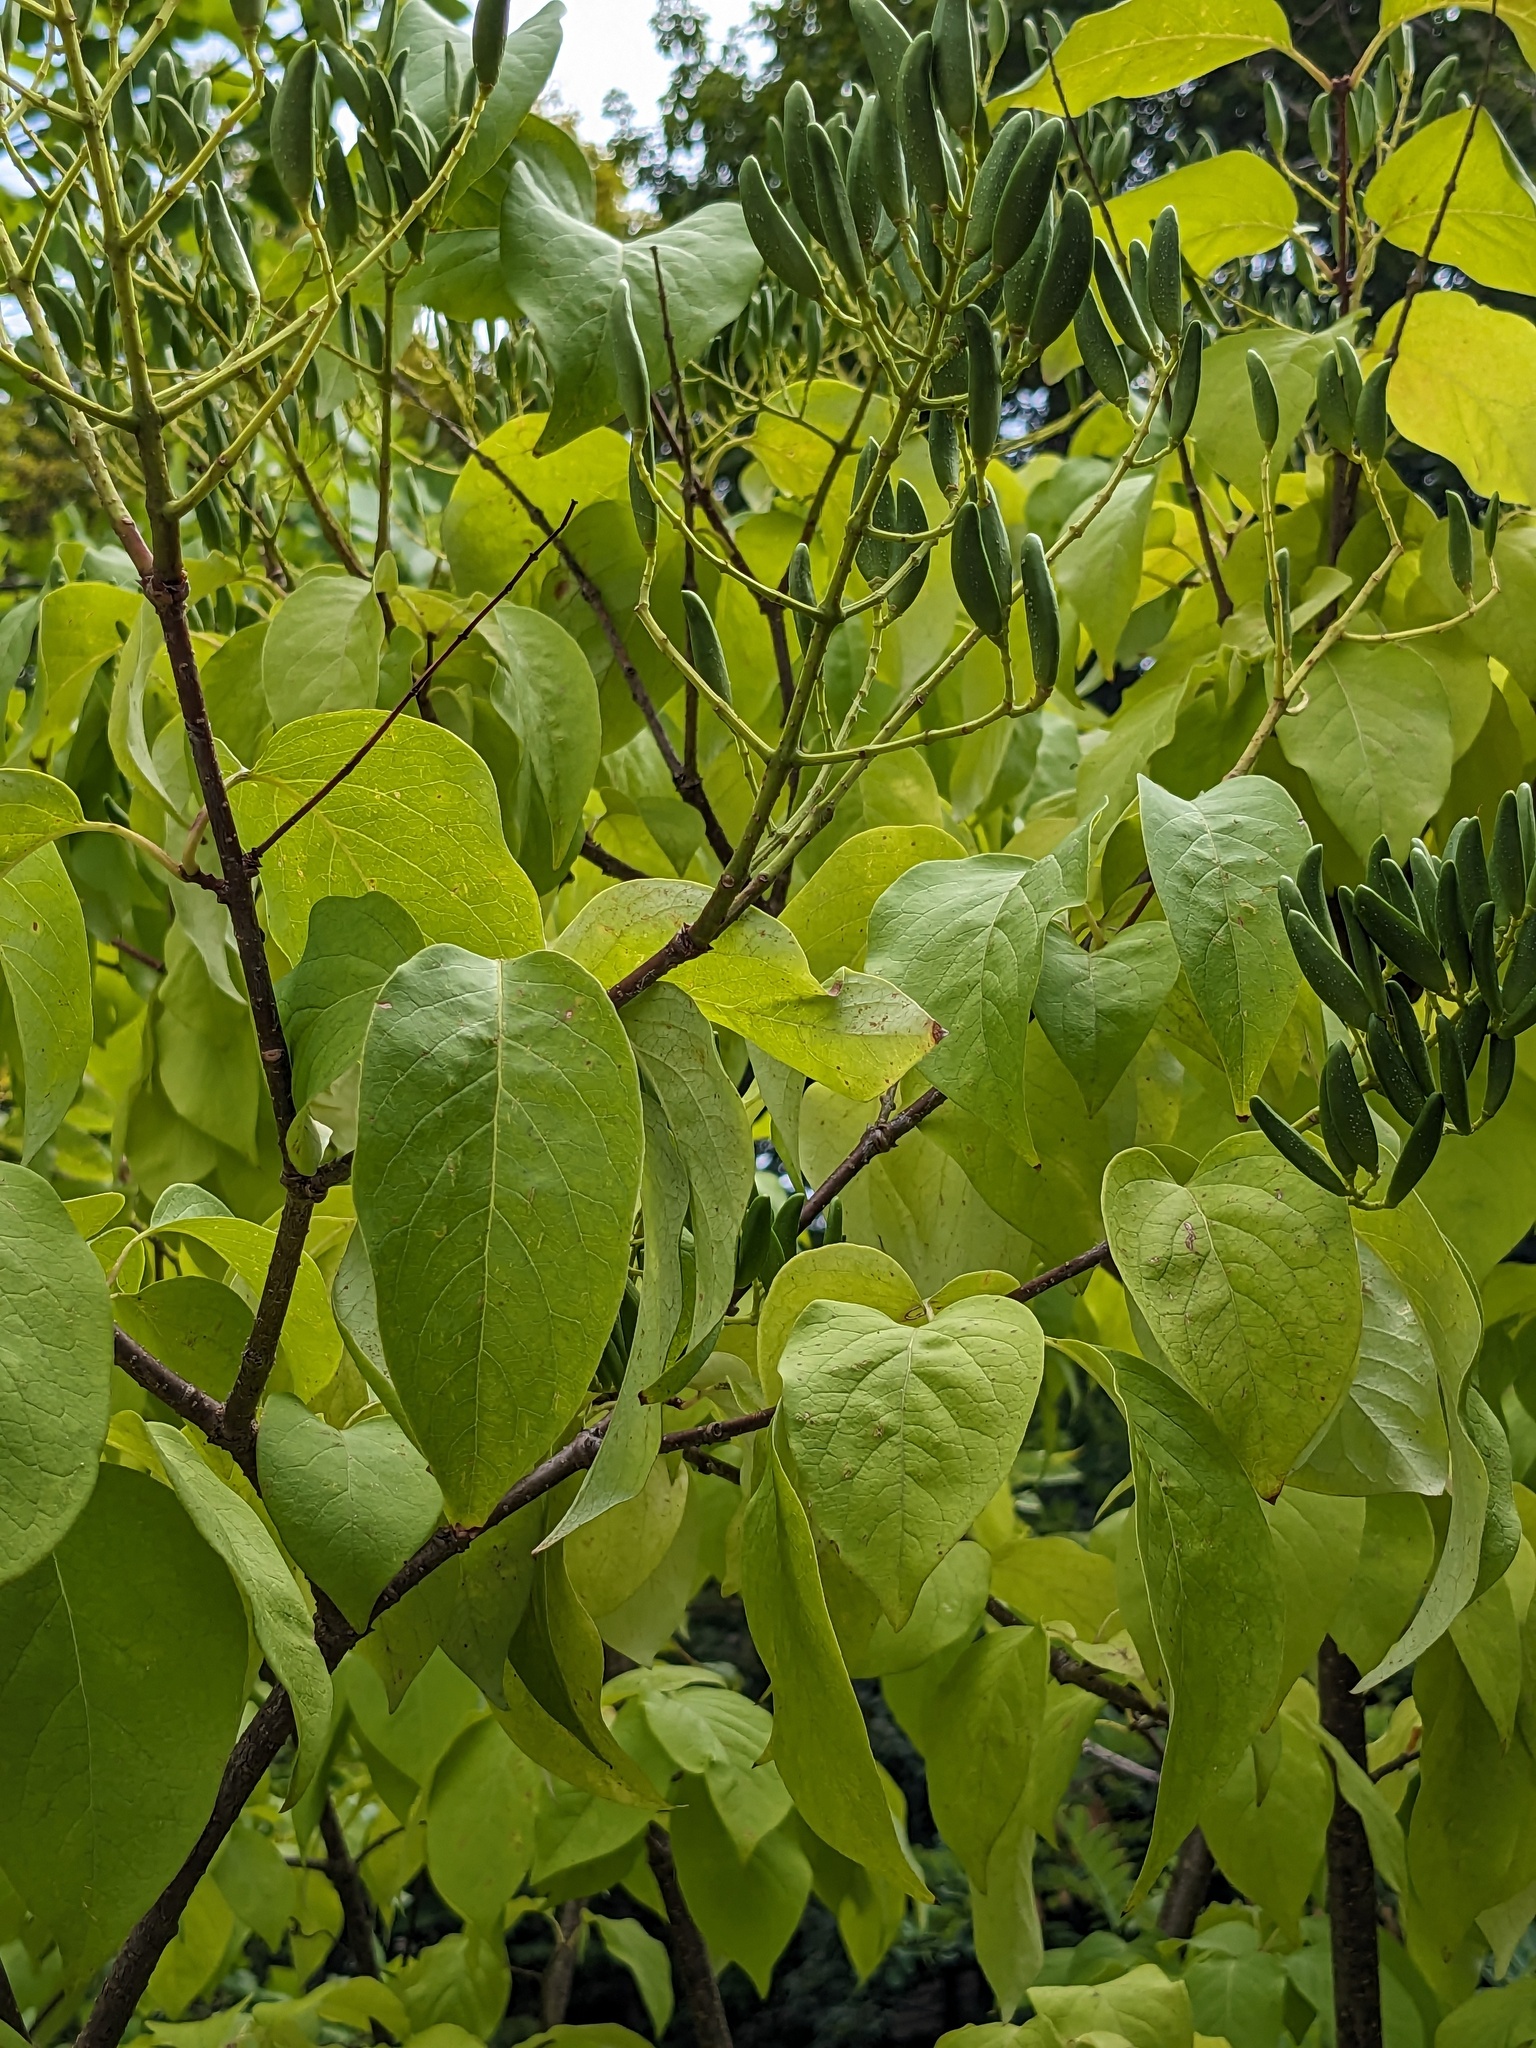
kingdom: Plantae
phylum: Tracheophyta
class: Magnoliopsida
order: Lamiales
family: Oleaceae
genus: Syringa
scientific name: Syringa reticulata
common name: Japanese tree lilac
